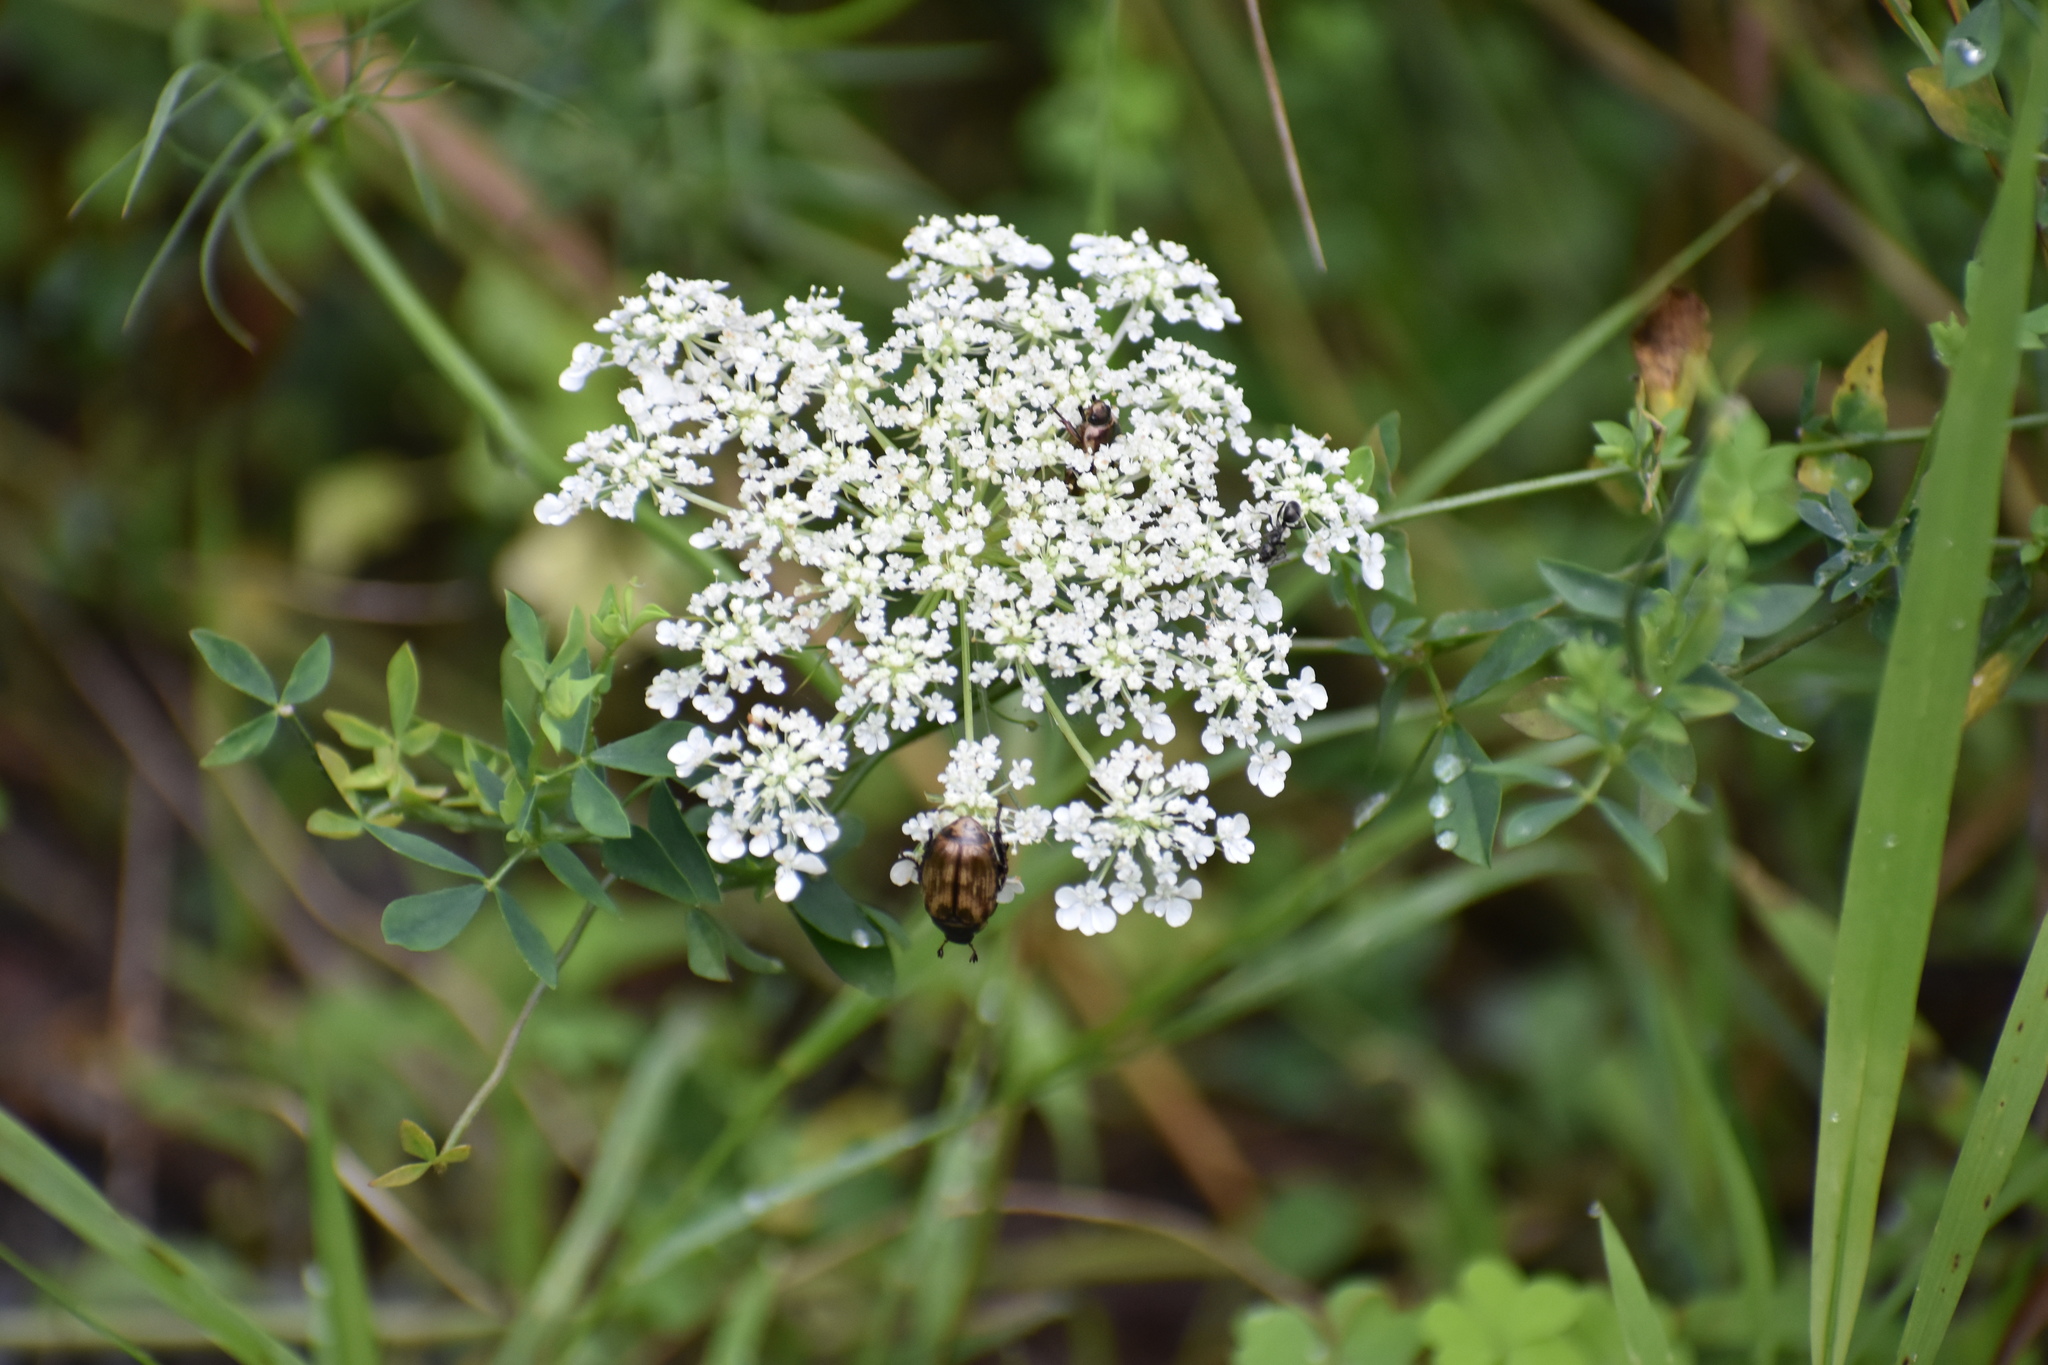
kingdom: Animalia
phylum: Arthropoda
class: Insecta
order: Coleoptera
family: Scarabaeidae
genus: Exomala
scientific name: Exomala orientalis
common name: Oriental beetle
